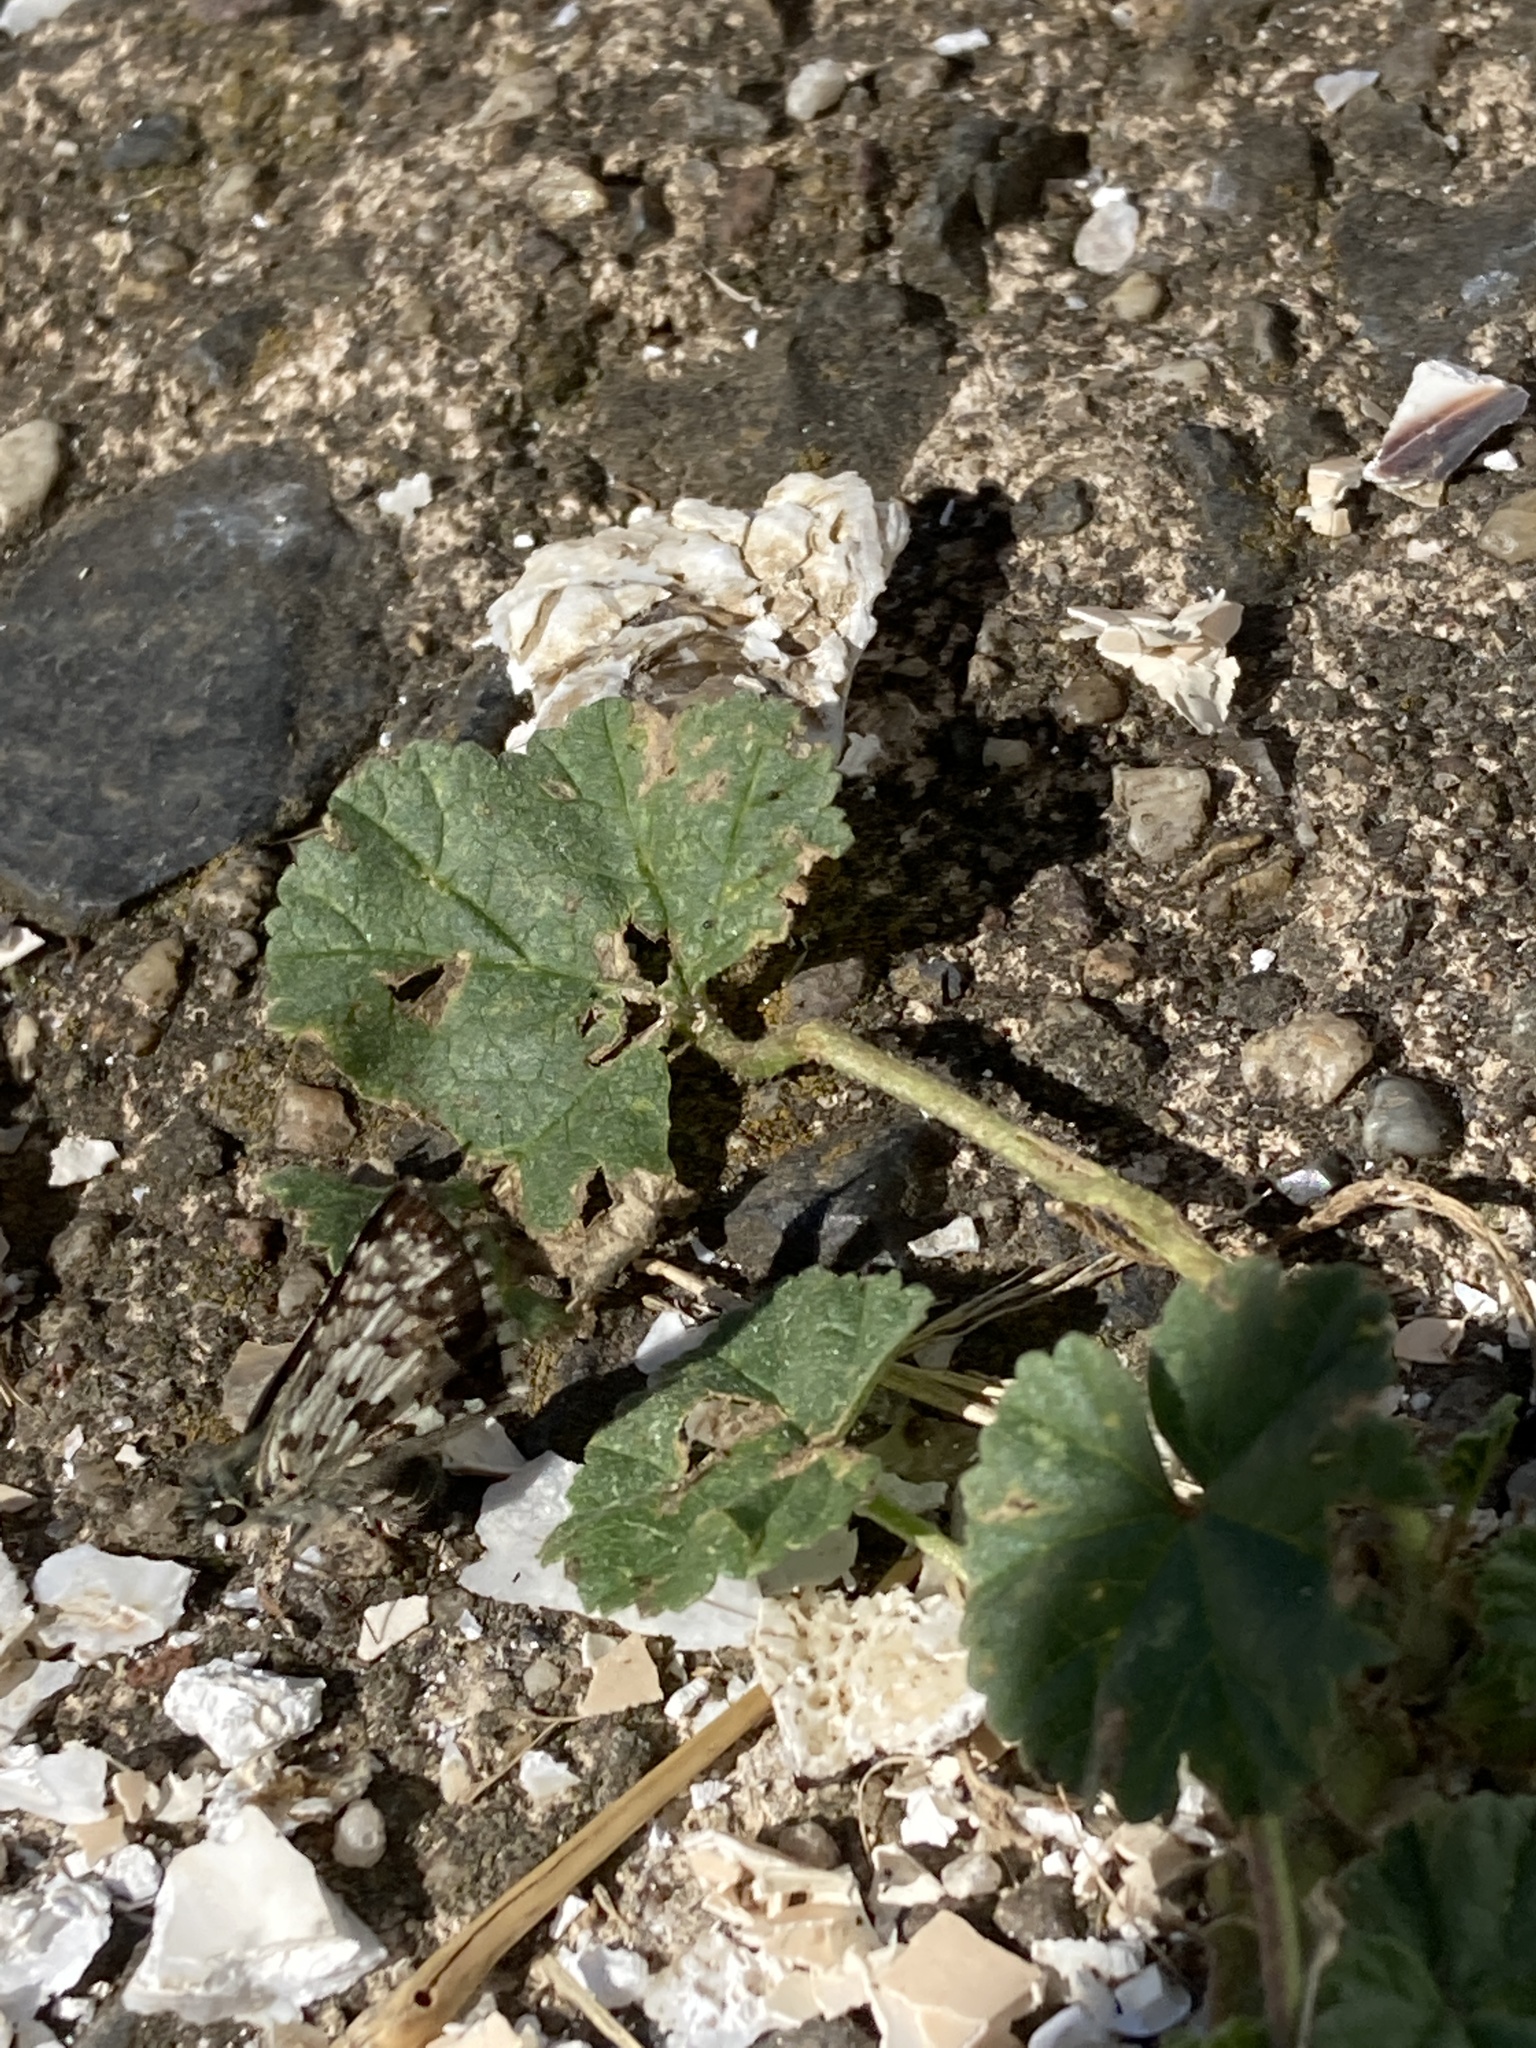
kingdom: Animalia
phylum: Arthropoda
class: Insecta
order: Lepidoptera
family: Hesperiidae
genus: Burnsius
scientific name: Burnsius communis
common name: Common checkered-skipper
